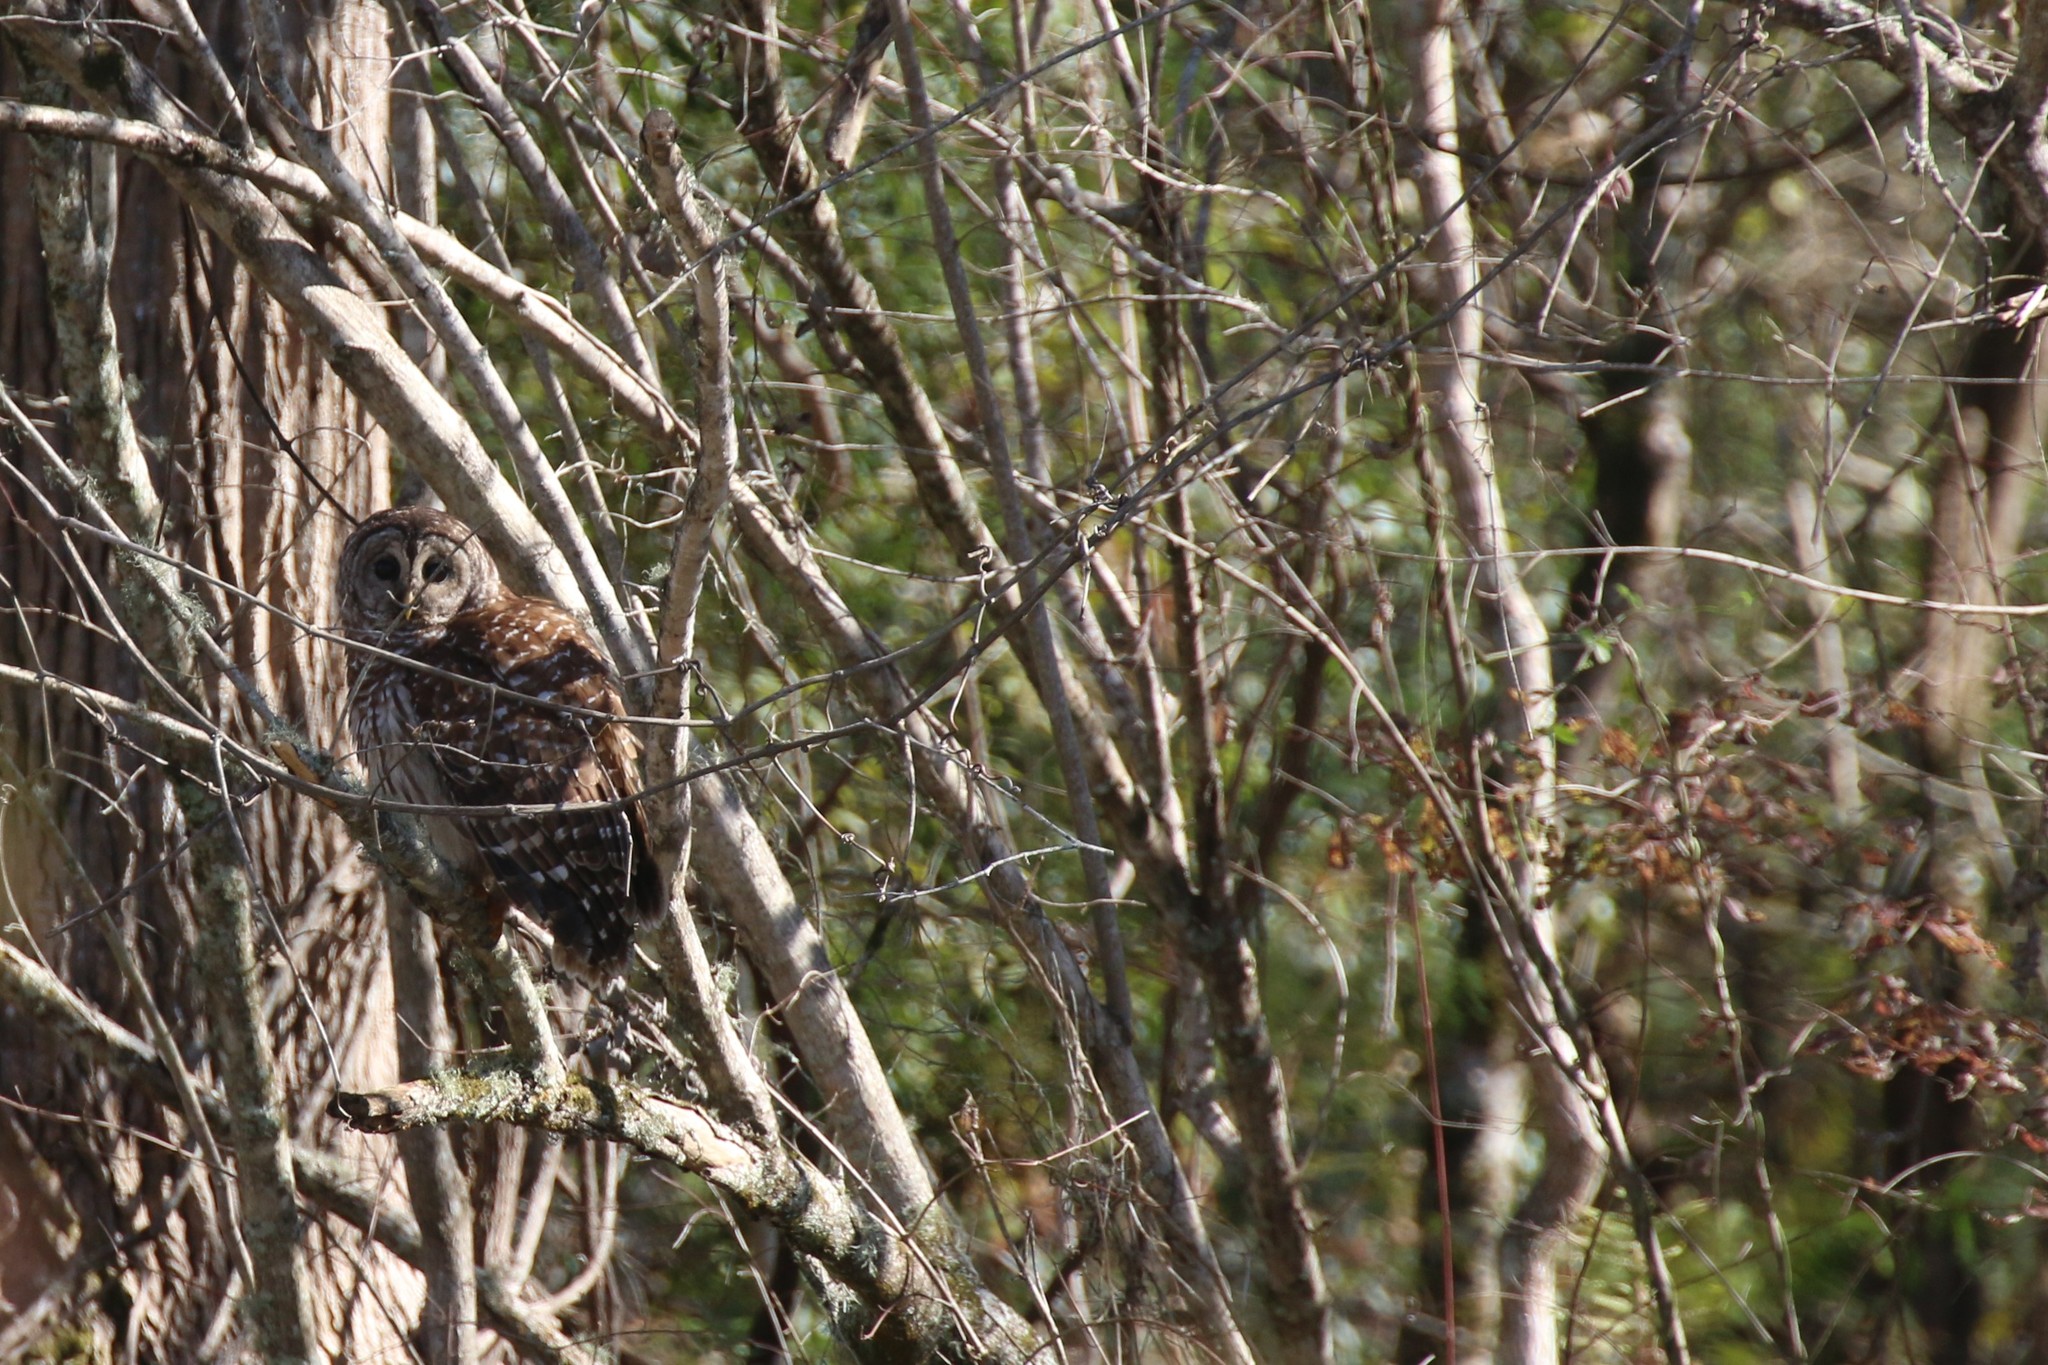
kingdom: Animalia
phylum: Chordata
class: Aves
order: Strigiformes
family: Strigidae
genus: Strix
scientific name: Strix varia
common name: Barred owl
